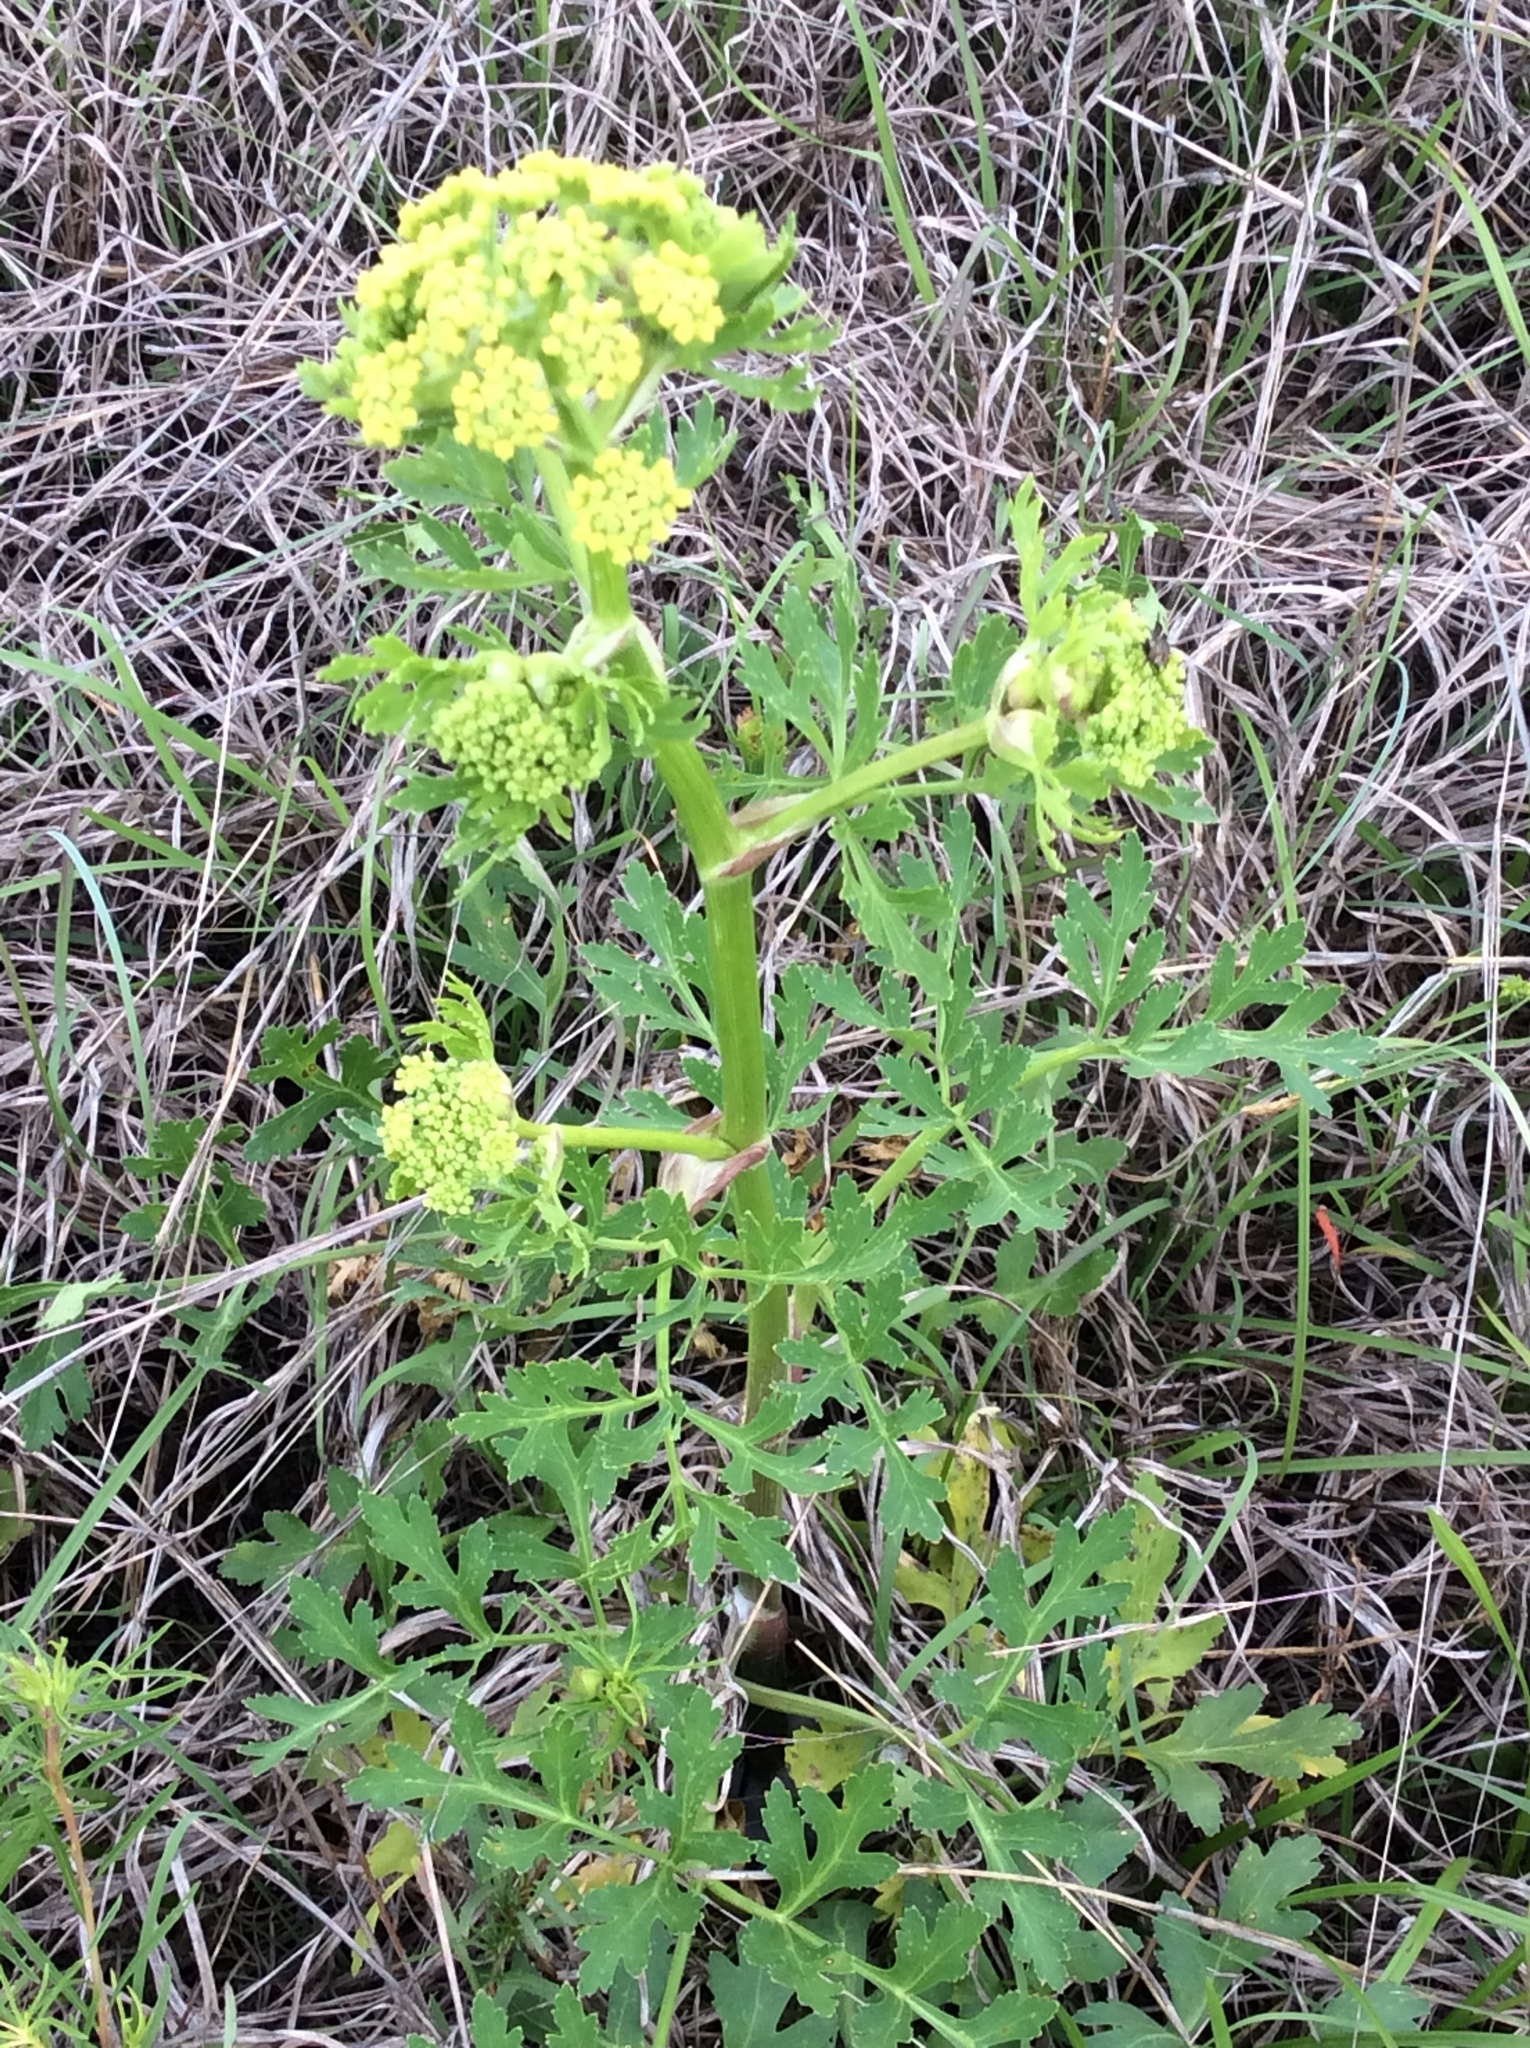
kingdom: Plantae
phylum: Tracheophyta
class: Magnoliopsida
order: Apiales
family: Apiaceae
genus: Polytaenia
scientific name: Polytaenia texana
